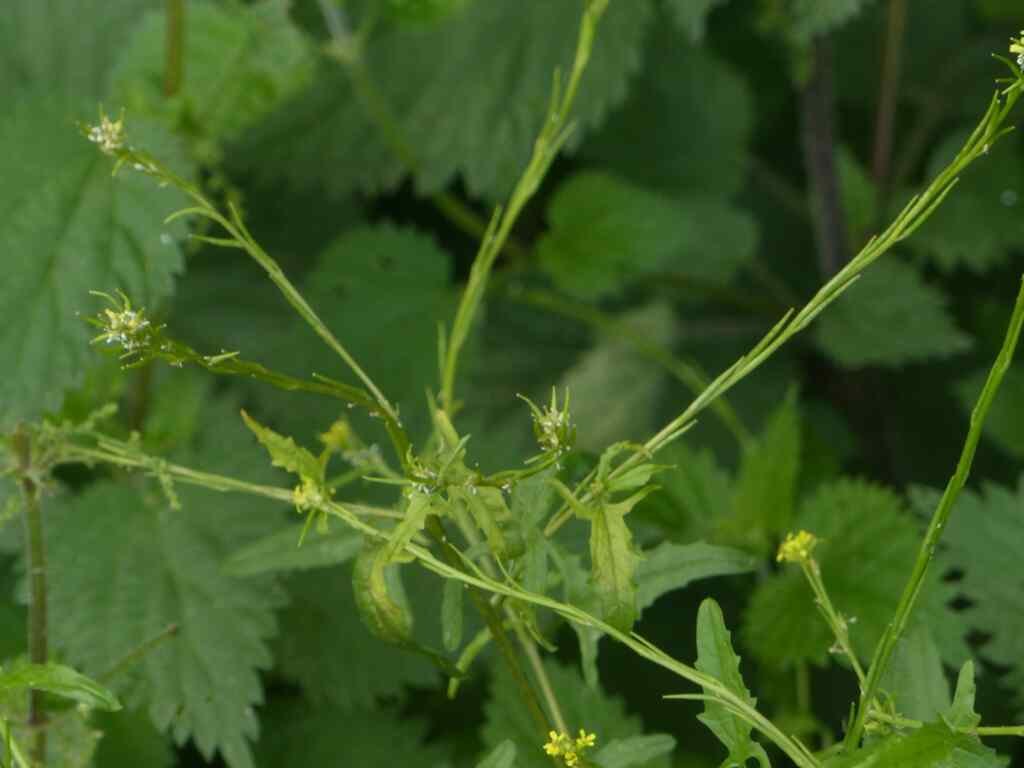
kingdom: Plantae
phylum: Tracheophyta
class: Magnoliopsida
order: Brassicales
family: Brassicaceae
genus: Sisymbrium
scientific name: Sisymbrium officinale
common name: Hedge mustard
